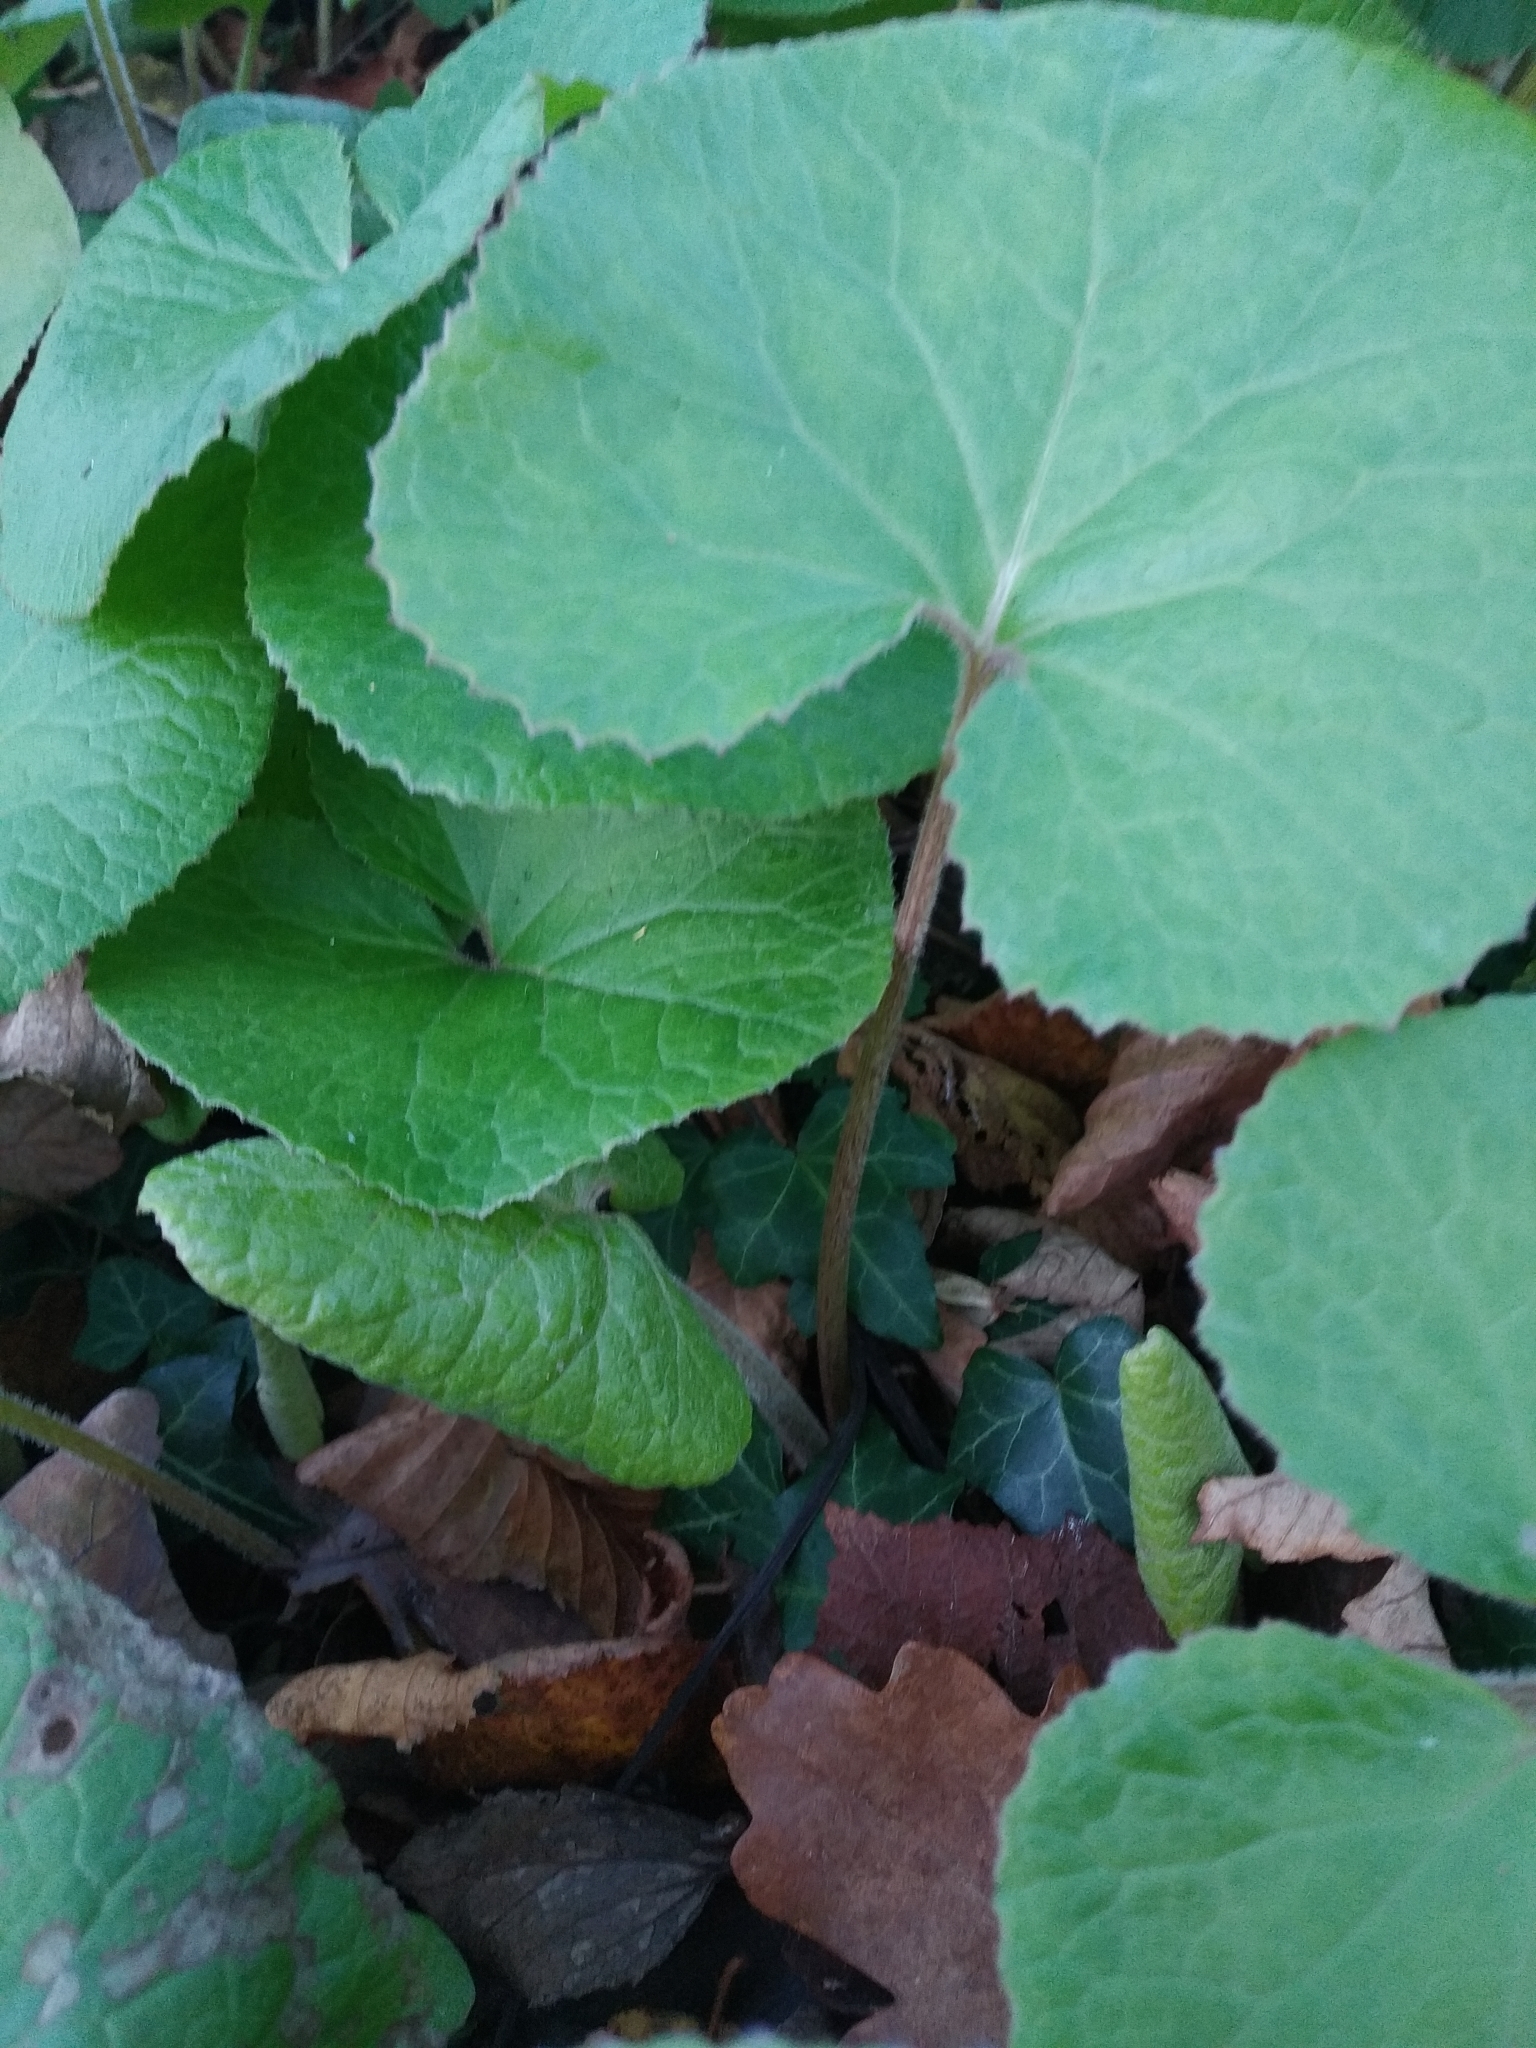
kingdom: Plantae
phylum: Tracheophyta
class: Magnoliopsida
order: Asterales
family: Asteraceae
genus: Petasites
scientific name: Petasites pyrenaicus
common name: Winter heliotrope
